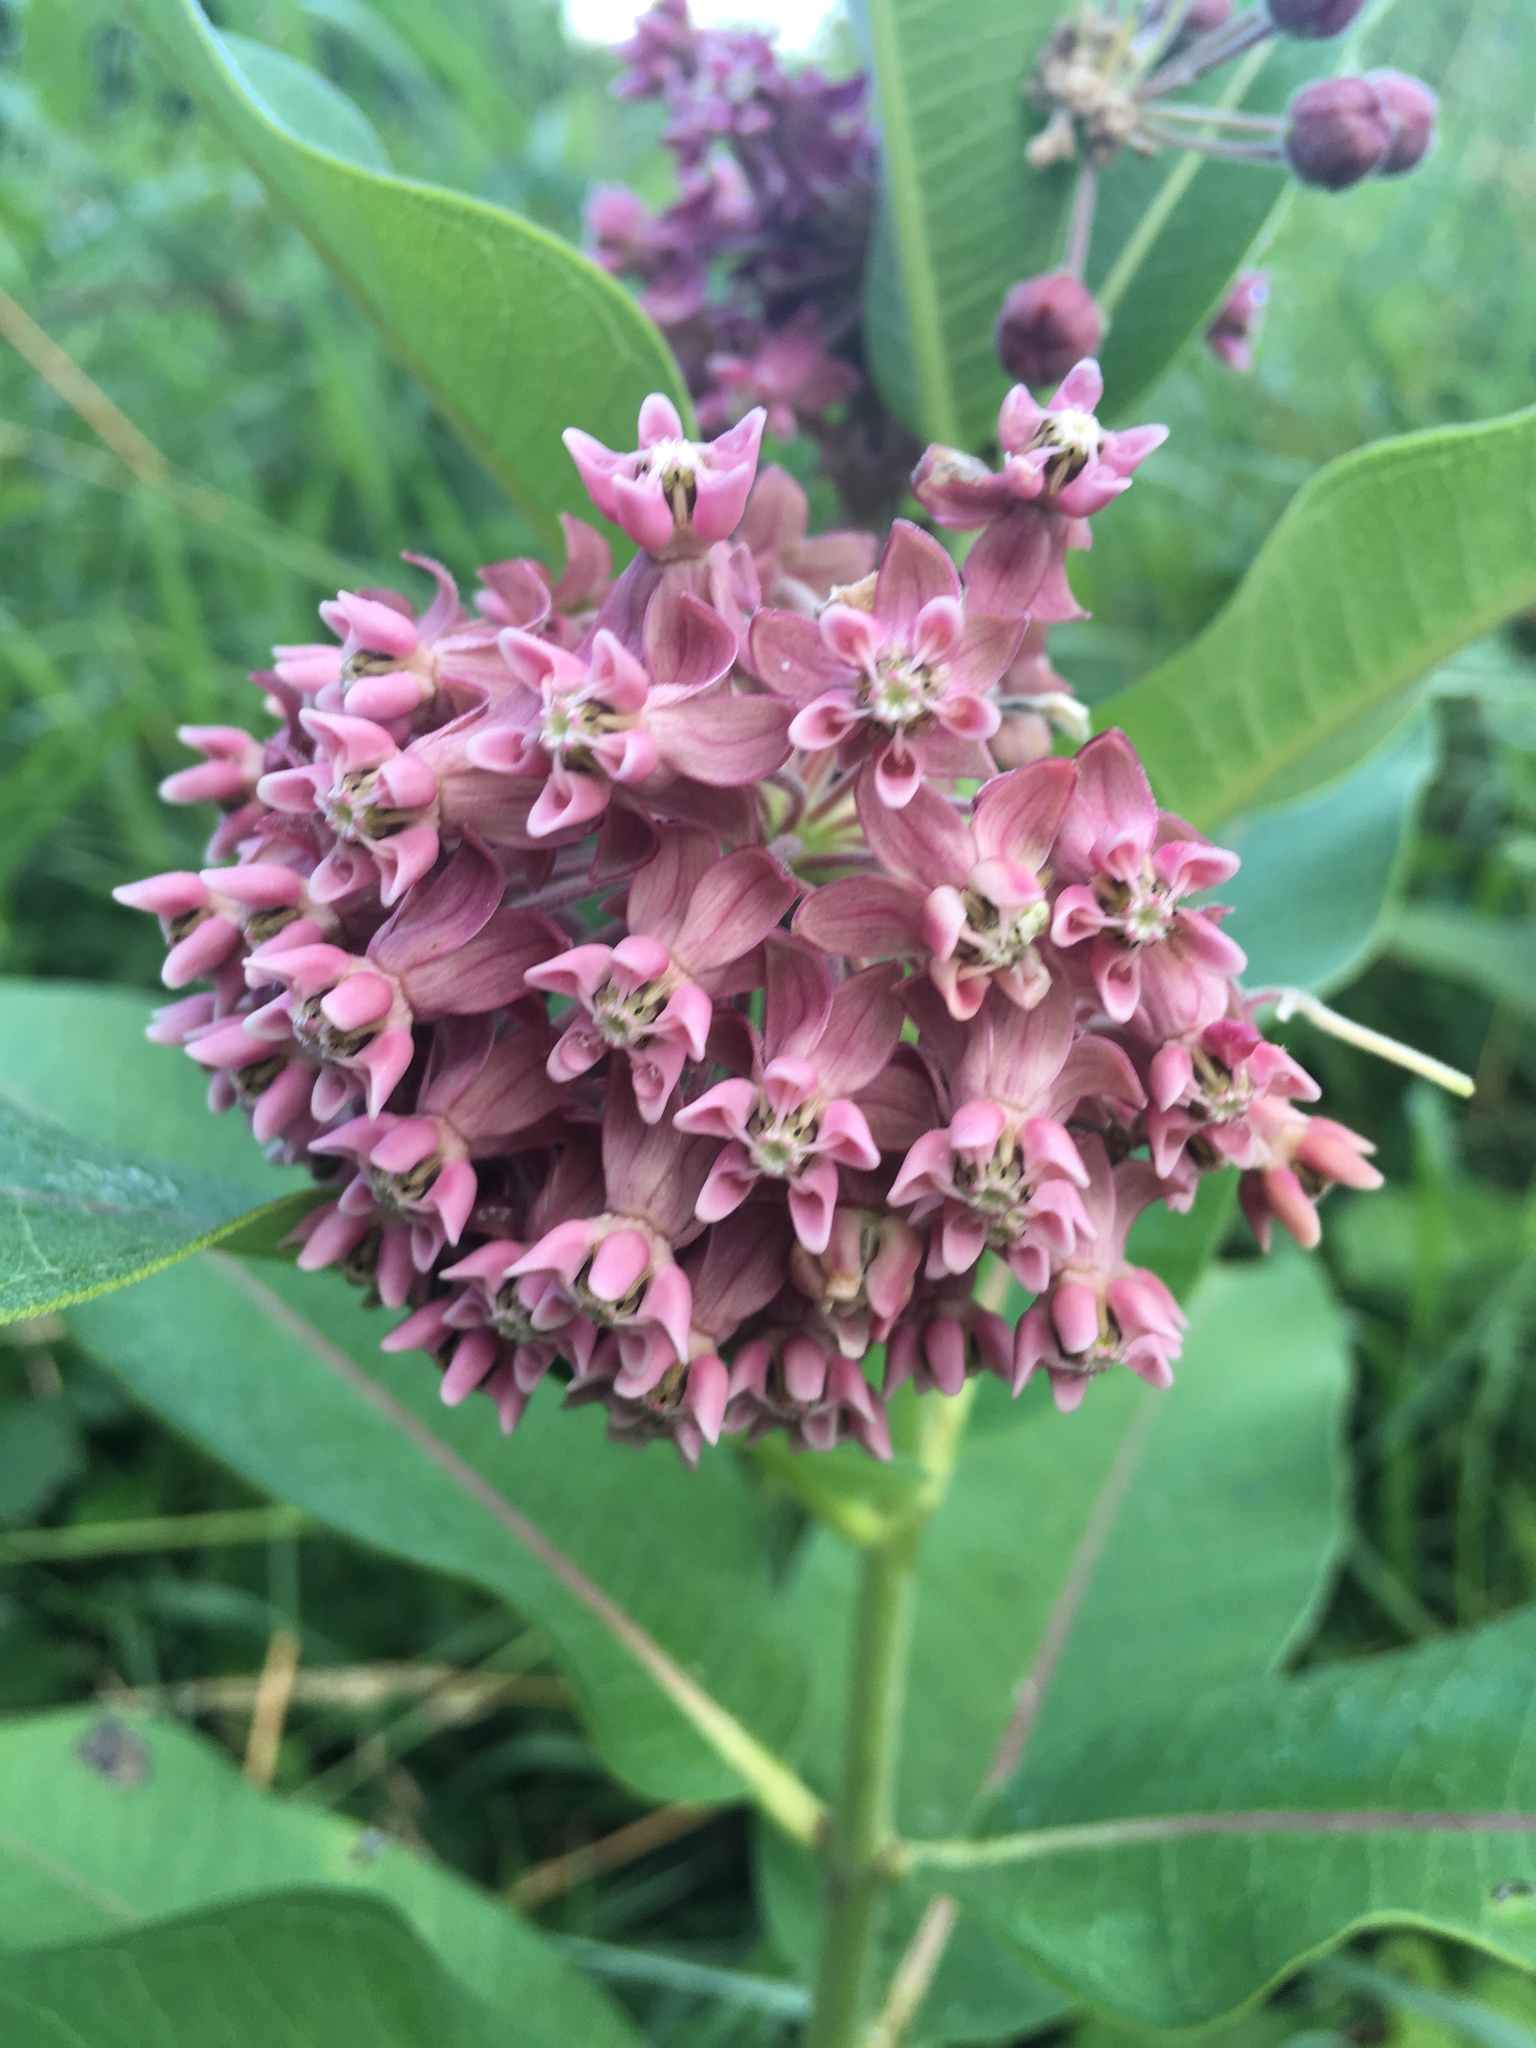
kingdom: Plantae
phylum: Tracheophyta
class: Magnoliopsida
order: Gentianales
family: Apocynaceae
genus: Asclepias
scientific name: Asclepias syriaca
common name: Common milkweed
